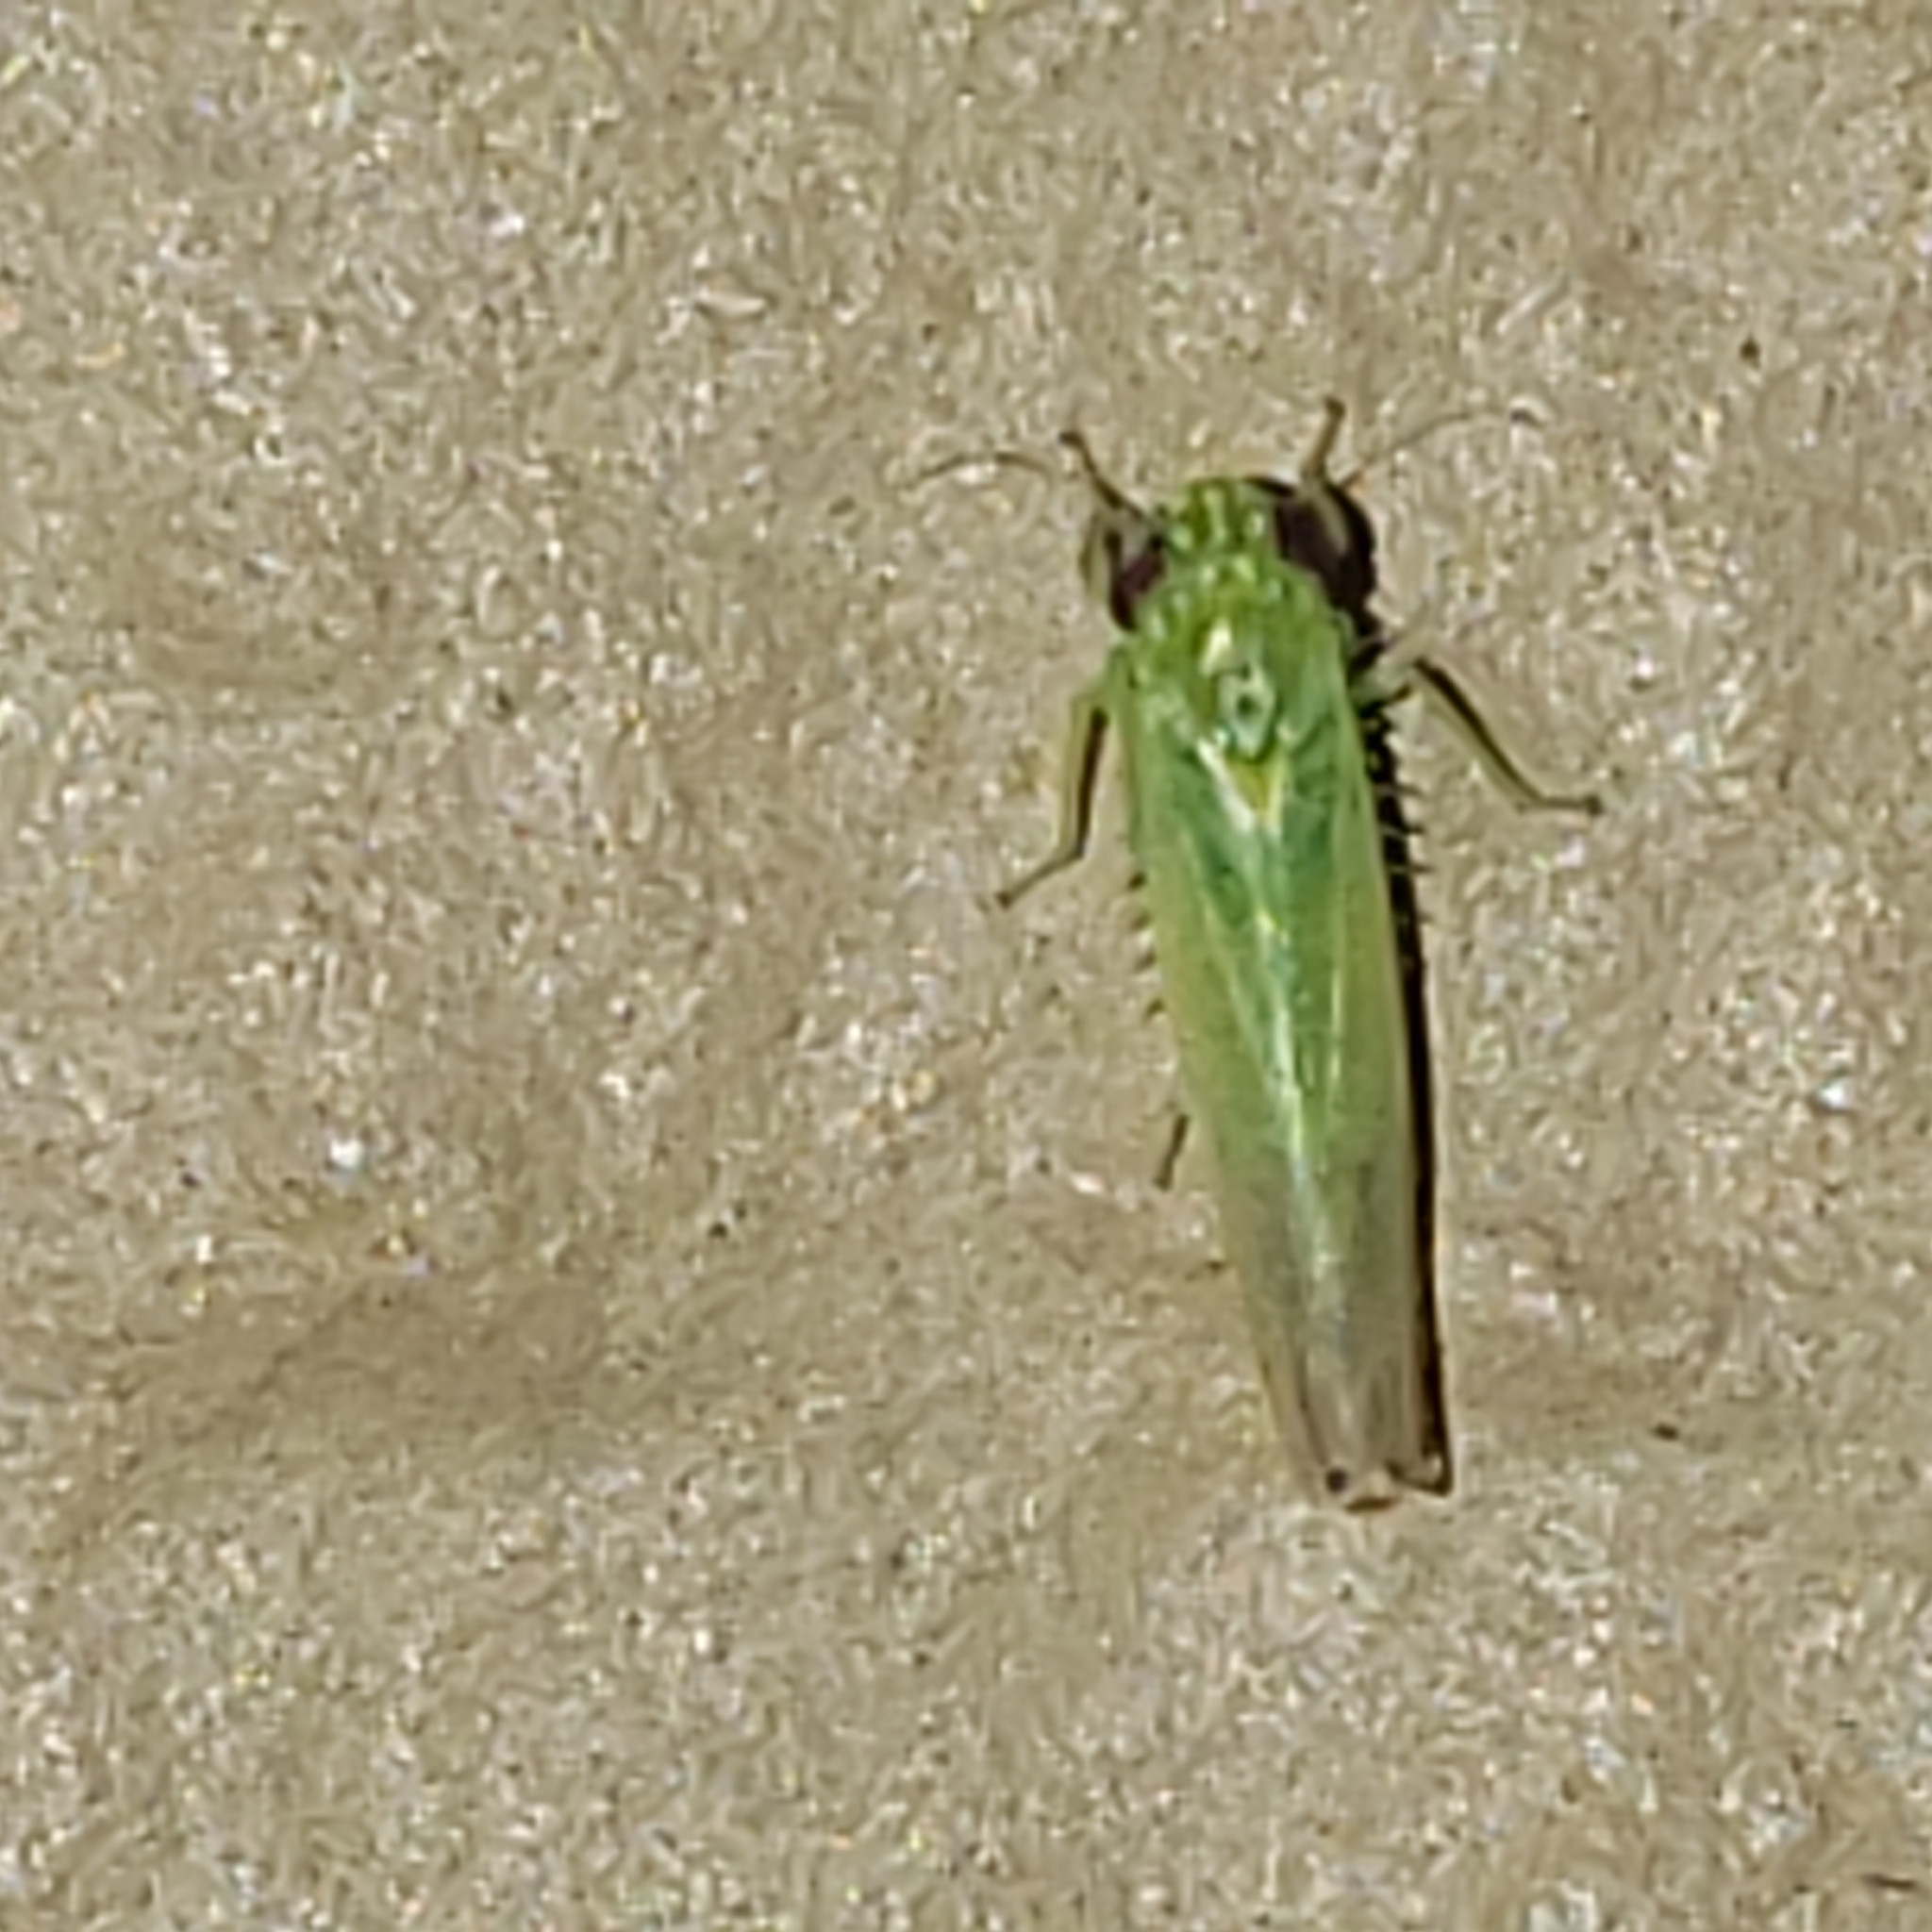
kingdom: Animalia
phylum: Arthropoda
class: Insecta
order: Hemiptera
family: Cicadellidae
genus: Empoasca
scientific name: Empoasca fabae
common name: Potato leafhopper
